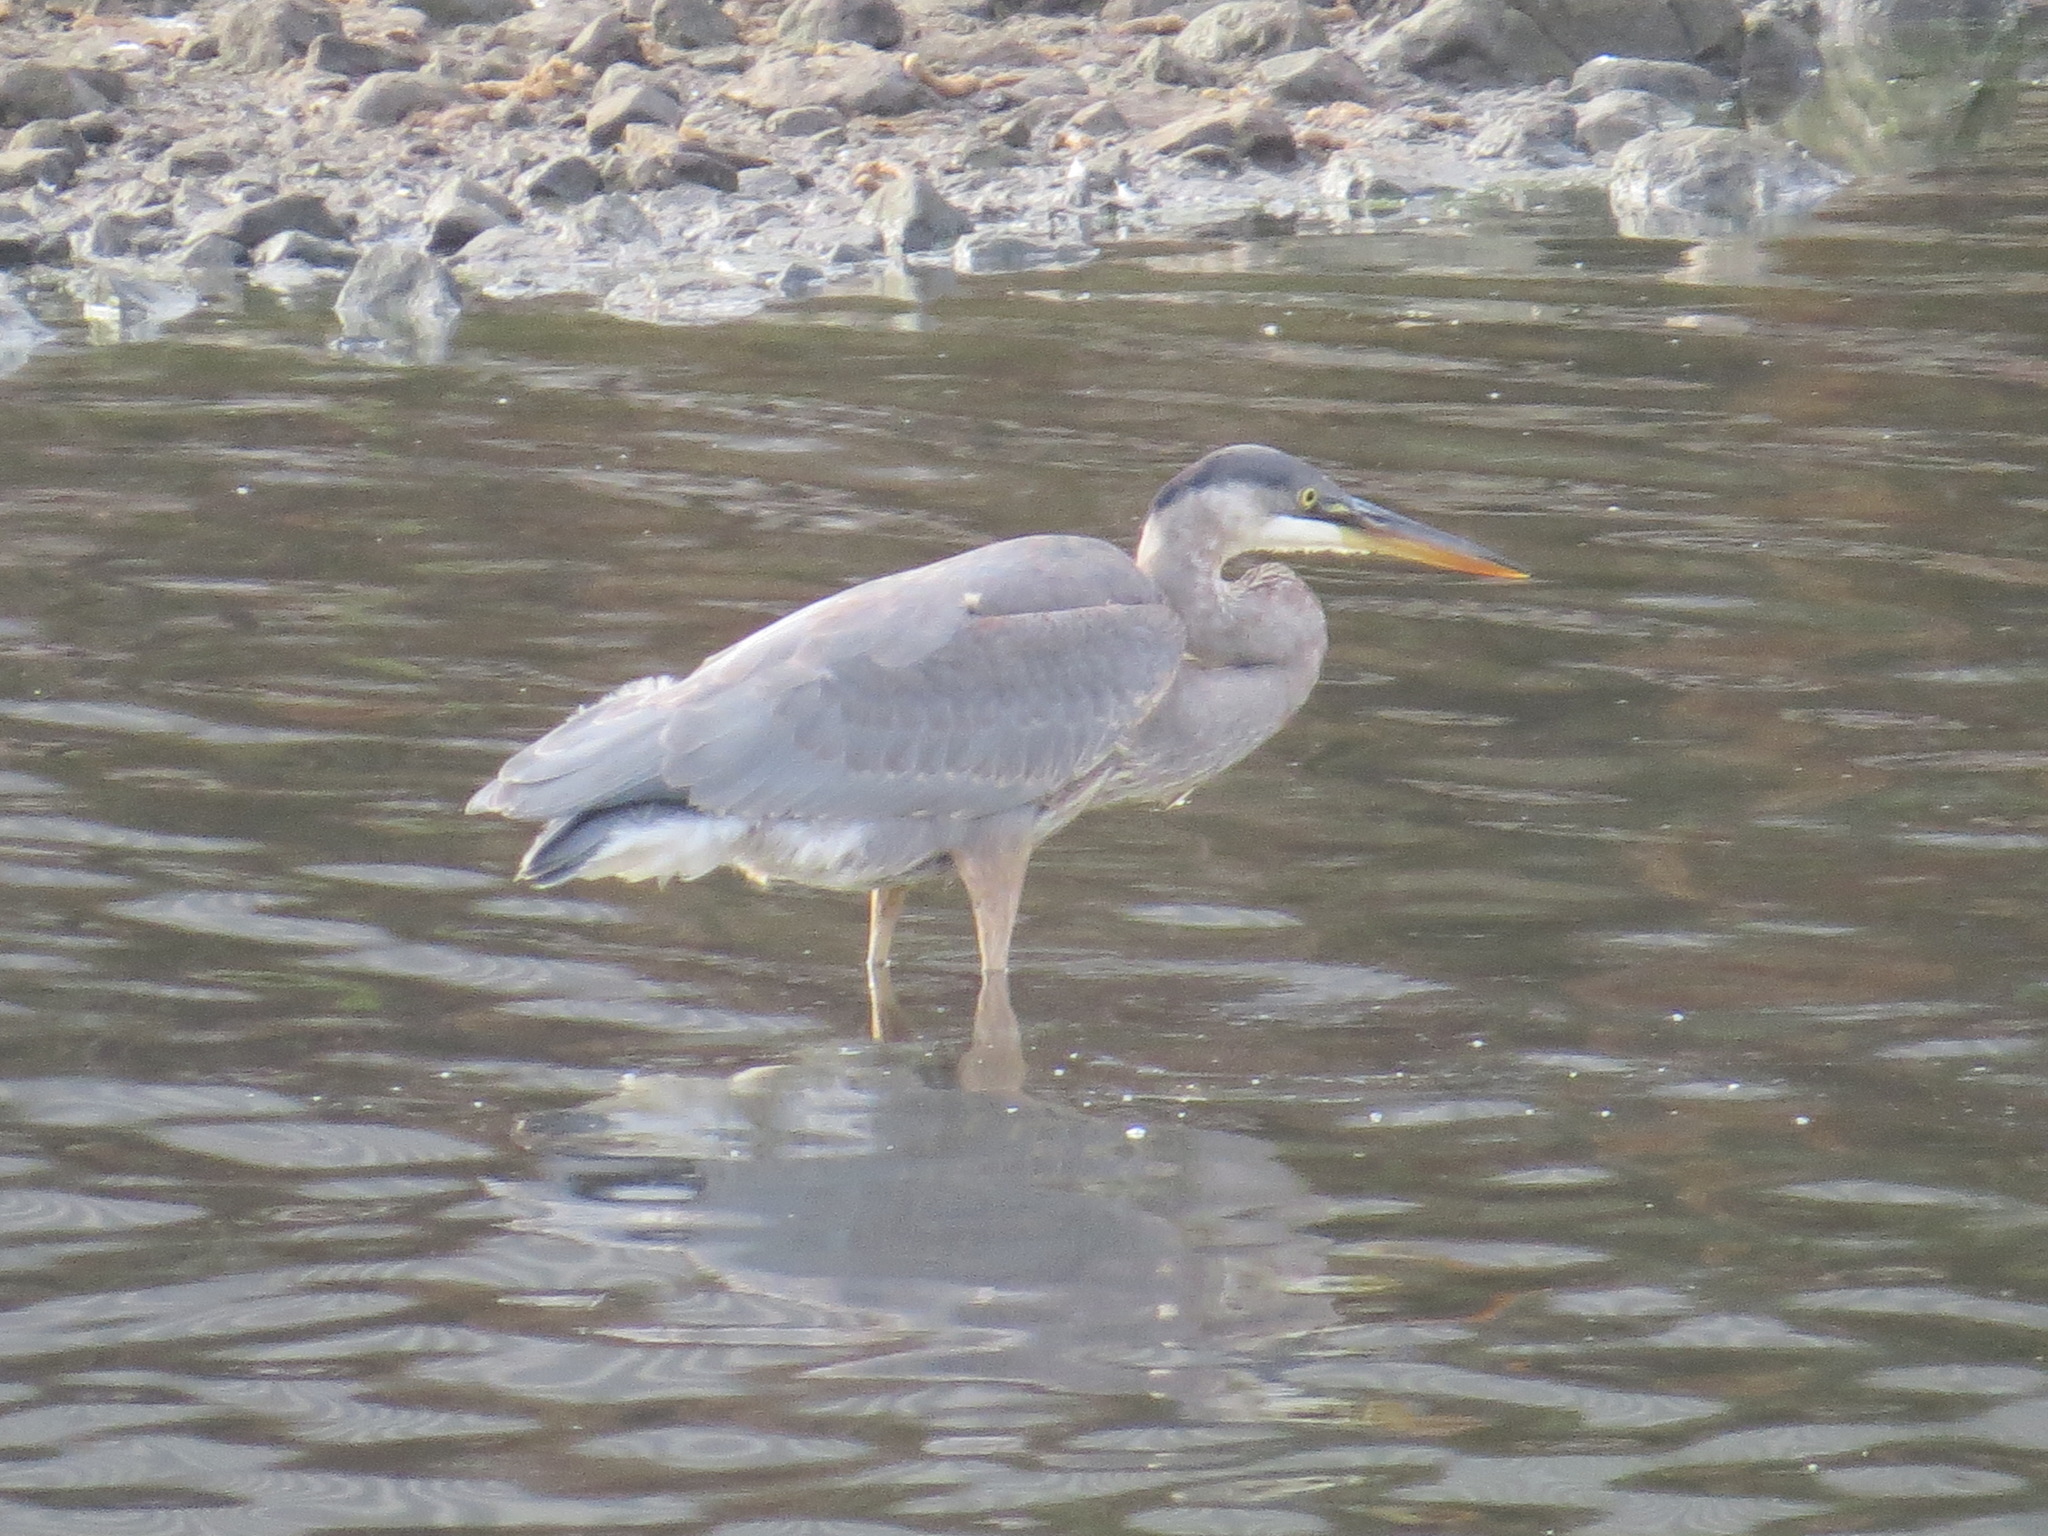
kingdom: Animalia
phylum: Chordata
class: Aves
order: Pelecaniformes
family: Ardeidae
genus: Ardea
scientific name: Ardea herodias
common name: Great blue heron
